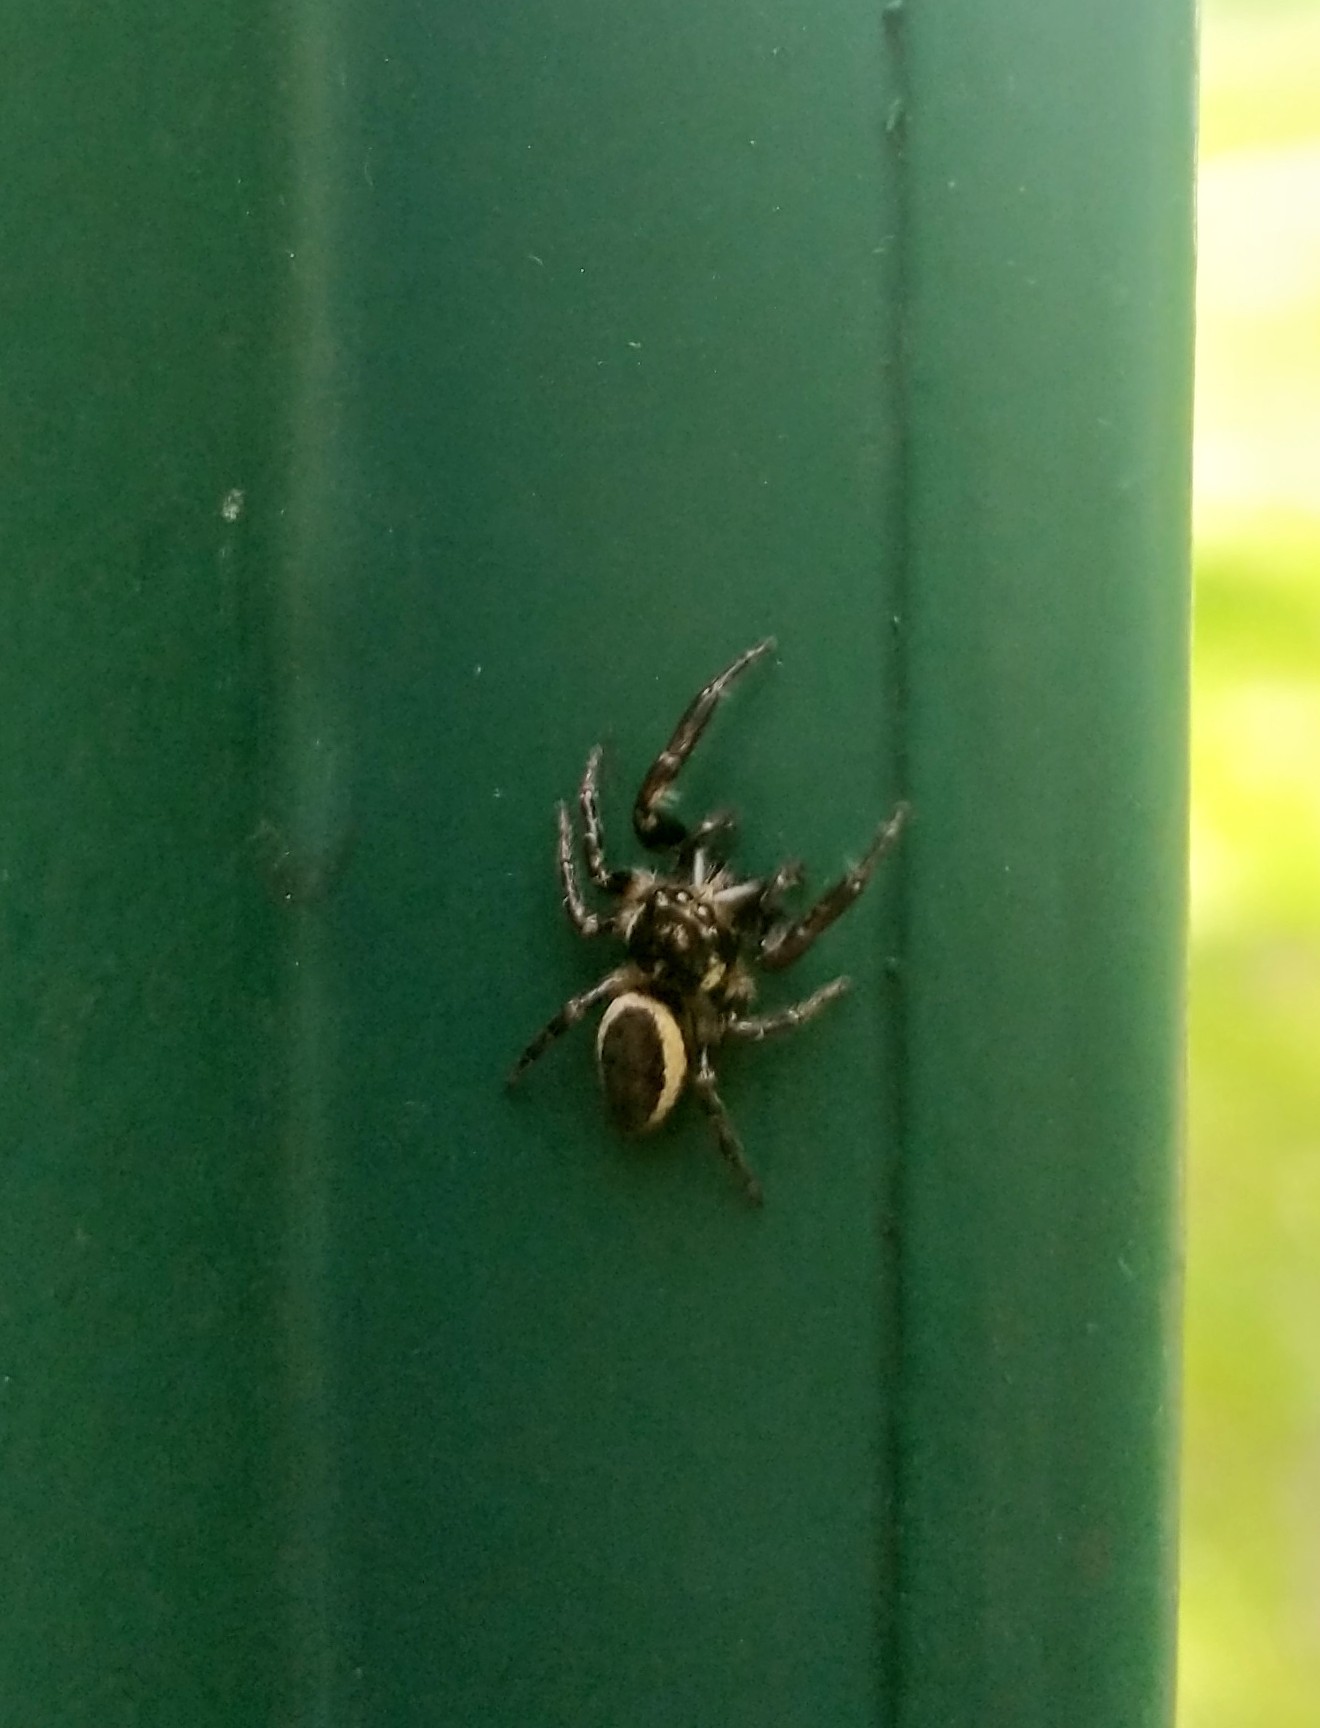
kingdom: Animalia
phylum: Arthropoda
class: Arachnida
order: Araneae
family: Salticidae
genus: Eris
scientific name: Eris militaris
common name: Bronze jumper
